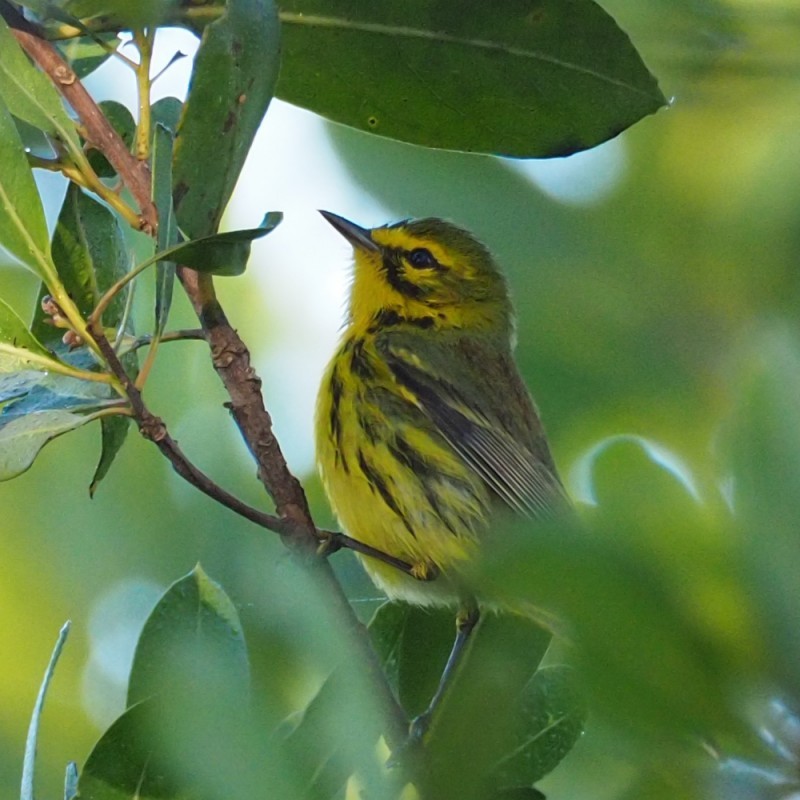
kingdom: Animalia
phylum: Chordata
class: Aves
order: Passeriformes
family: Parulidae
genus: Setophaga
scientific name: Setophaga discolor
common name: Prairie warbler
